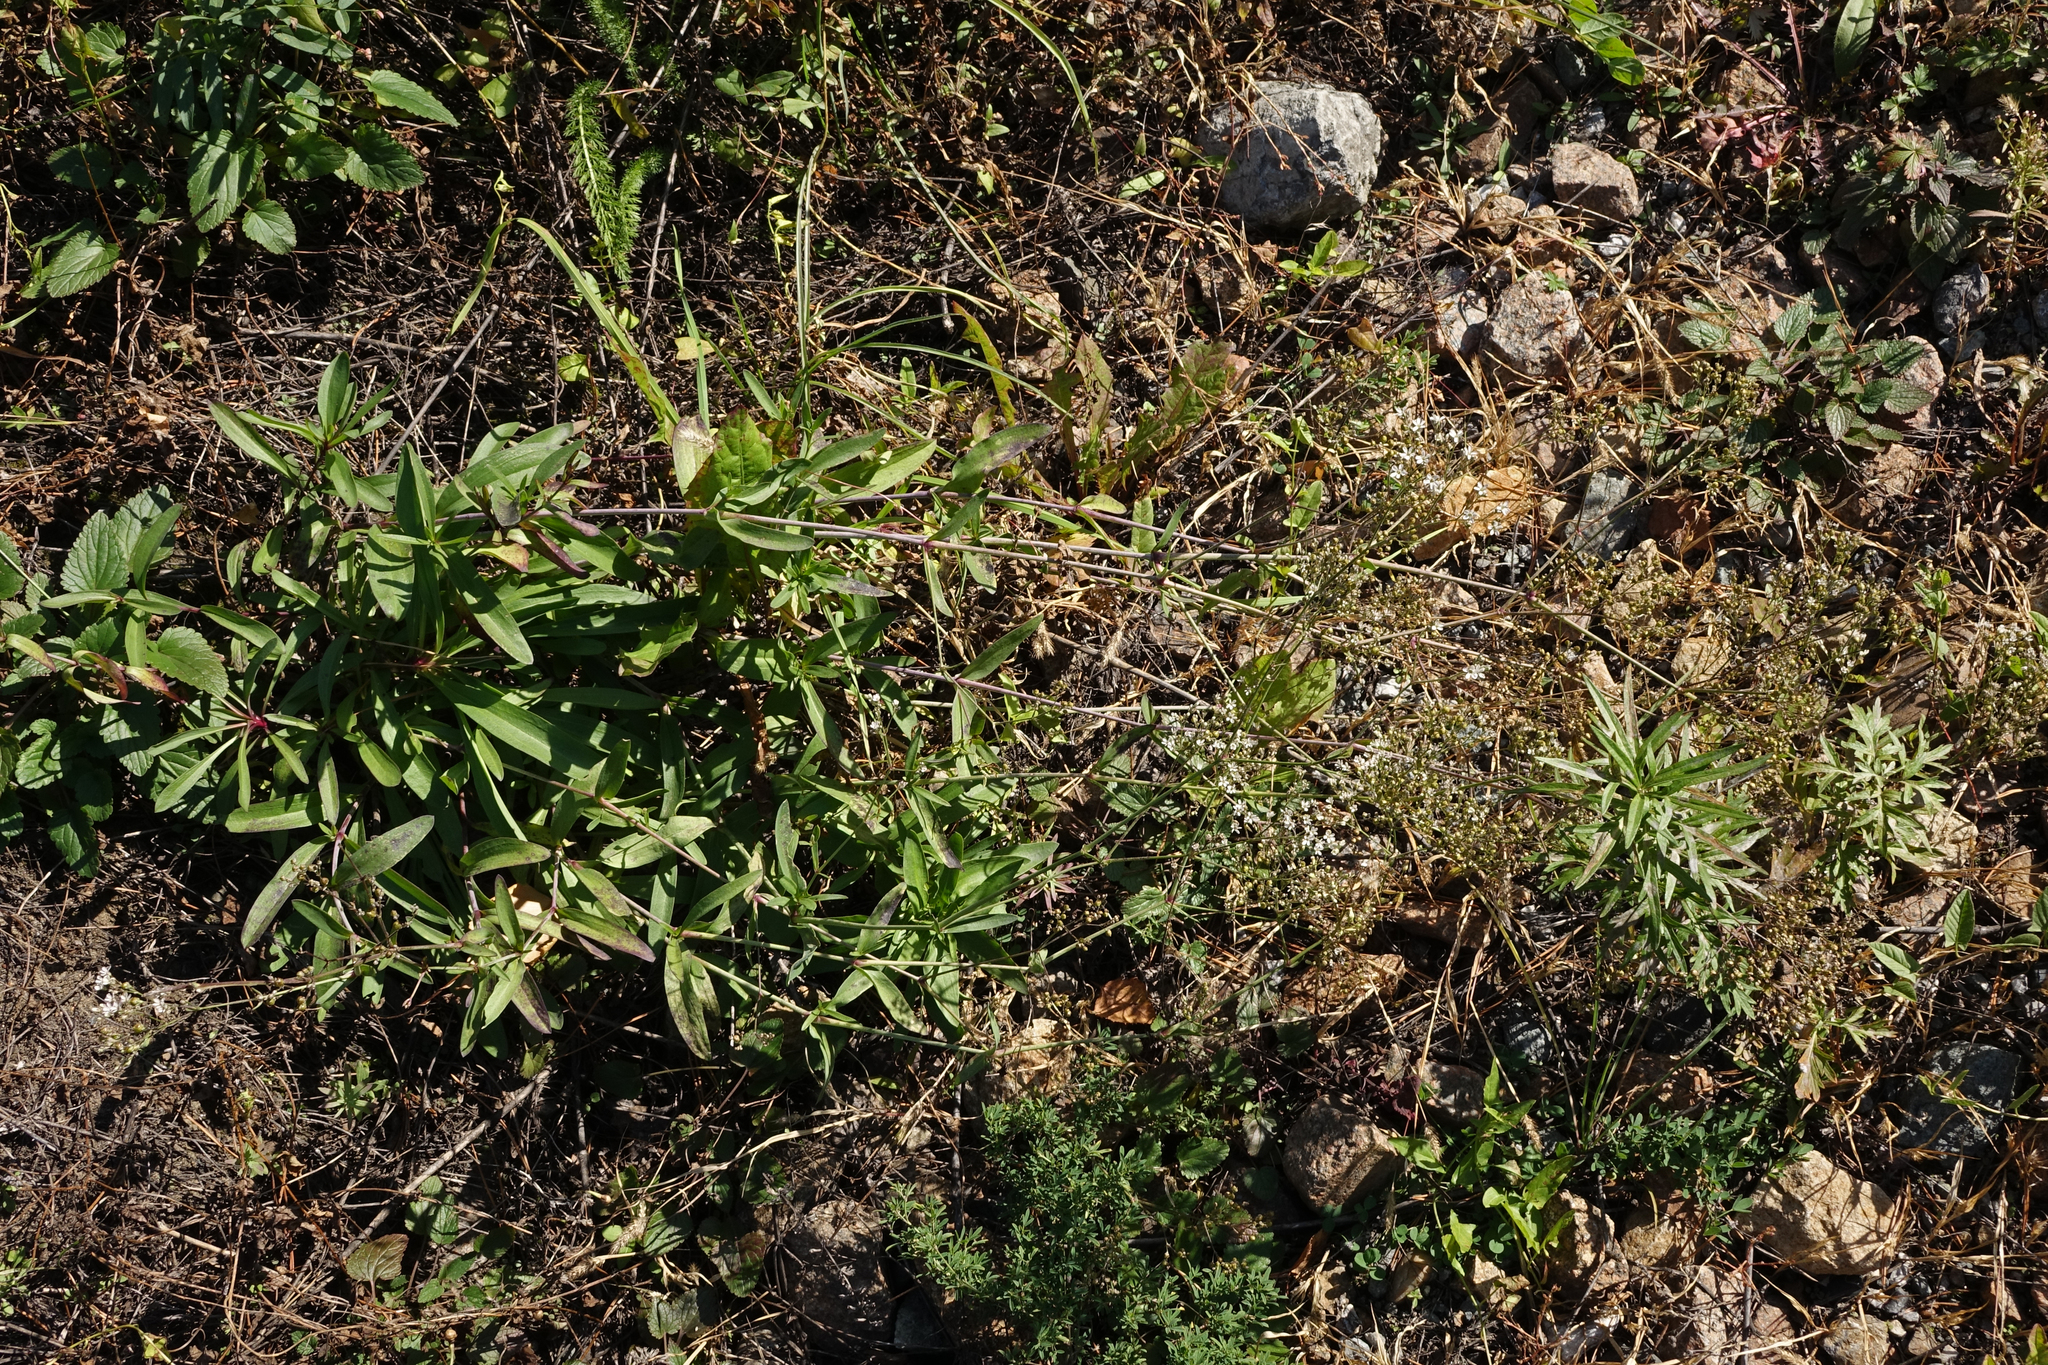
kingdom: Plantae
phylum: Tracheophyta
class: Magnoliopsida
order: Caryophyllales
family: Caryophyllaceae
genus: Gypsophila
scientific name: Gypsophila altissima
